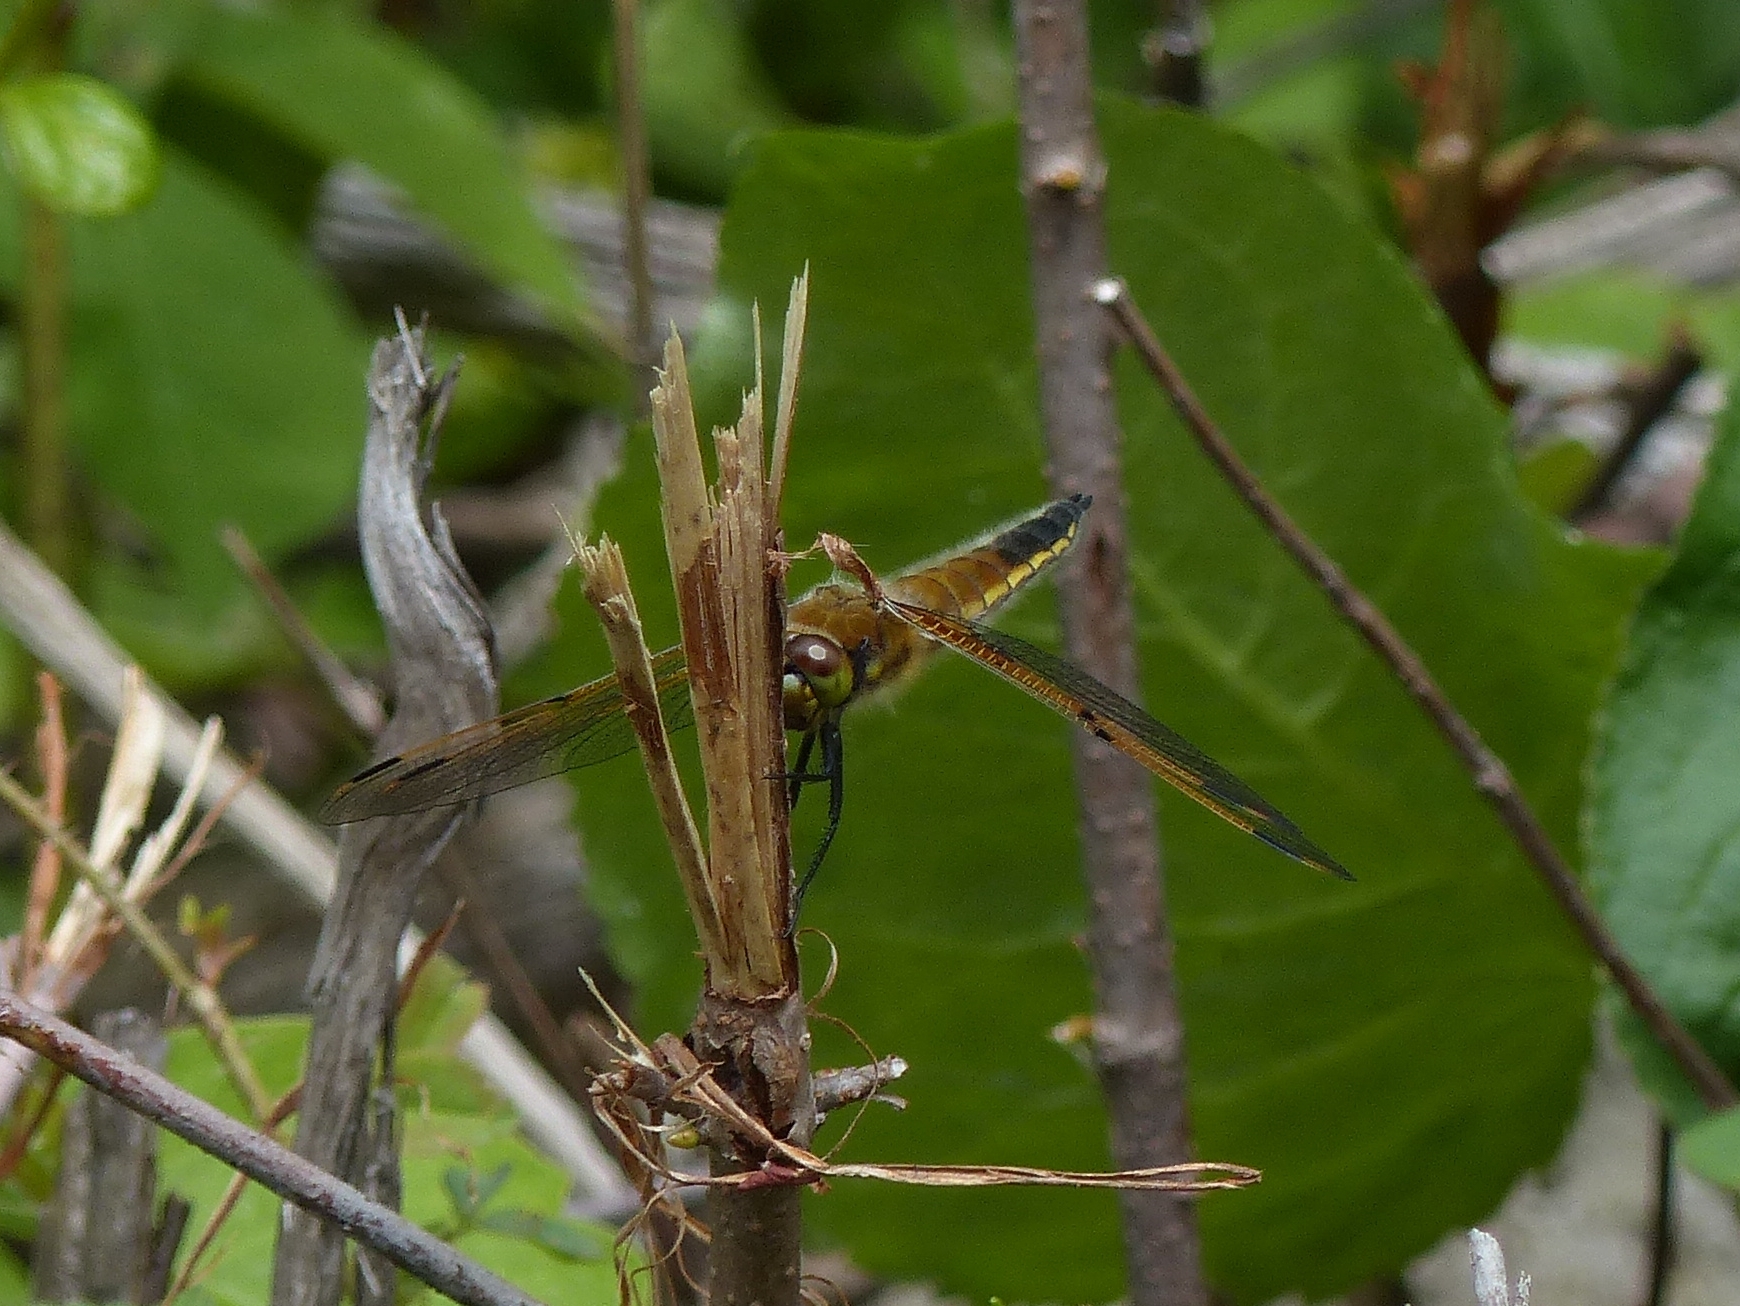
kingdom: Animalia
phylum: Arthropoda
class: Insecta
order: Odonata
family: Libellulidae
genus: Libellula
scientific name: Libellula quadrimaculata
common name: Four-spotted chaser
